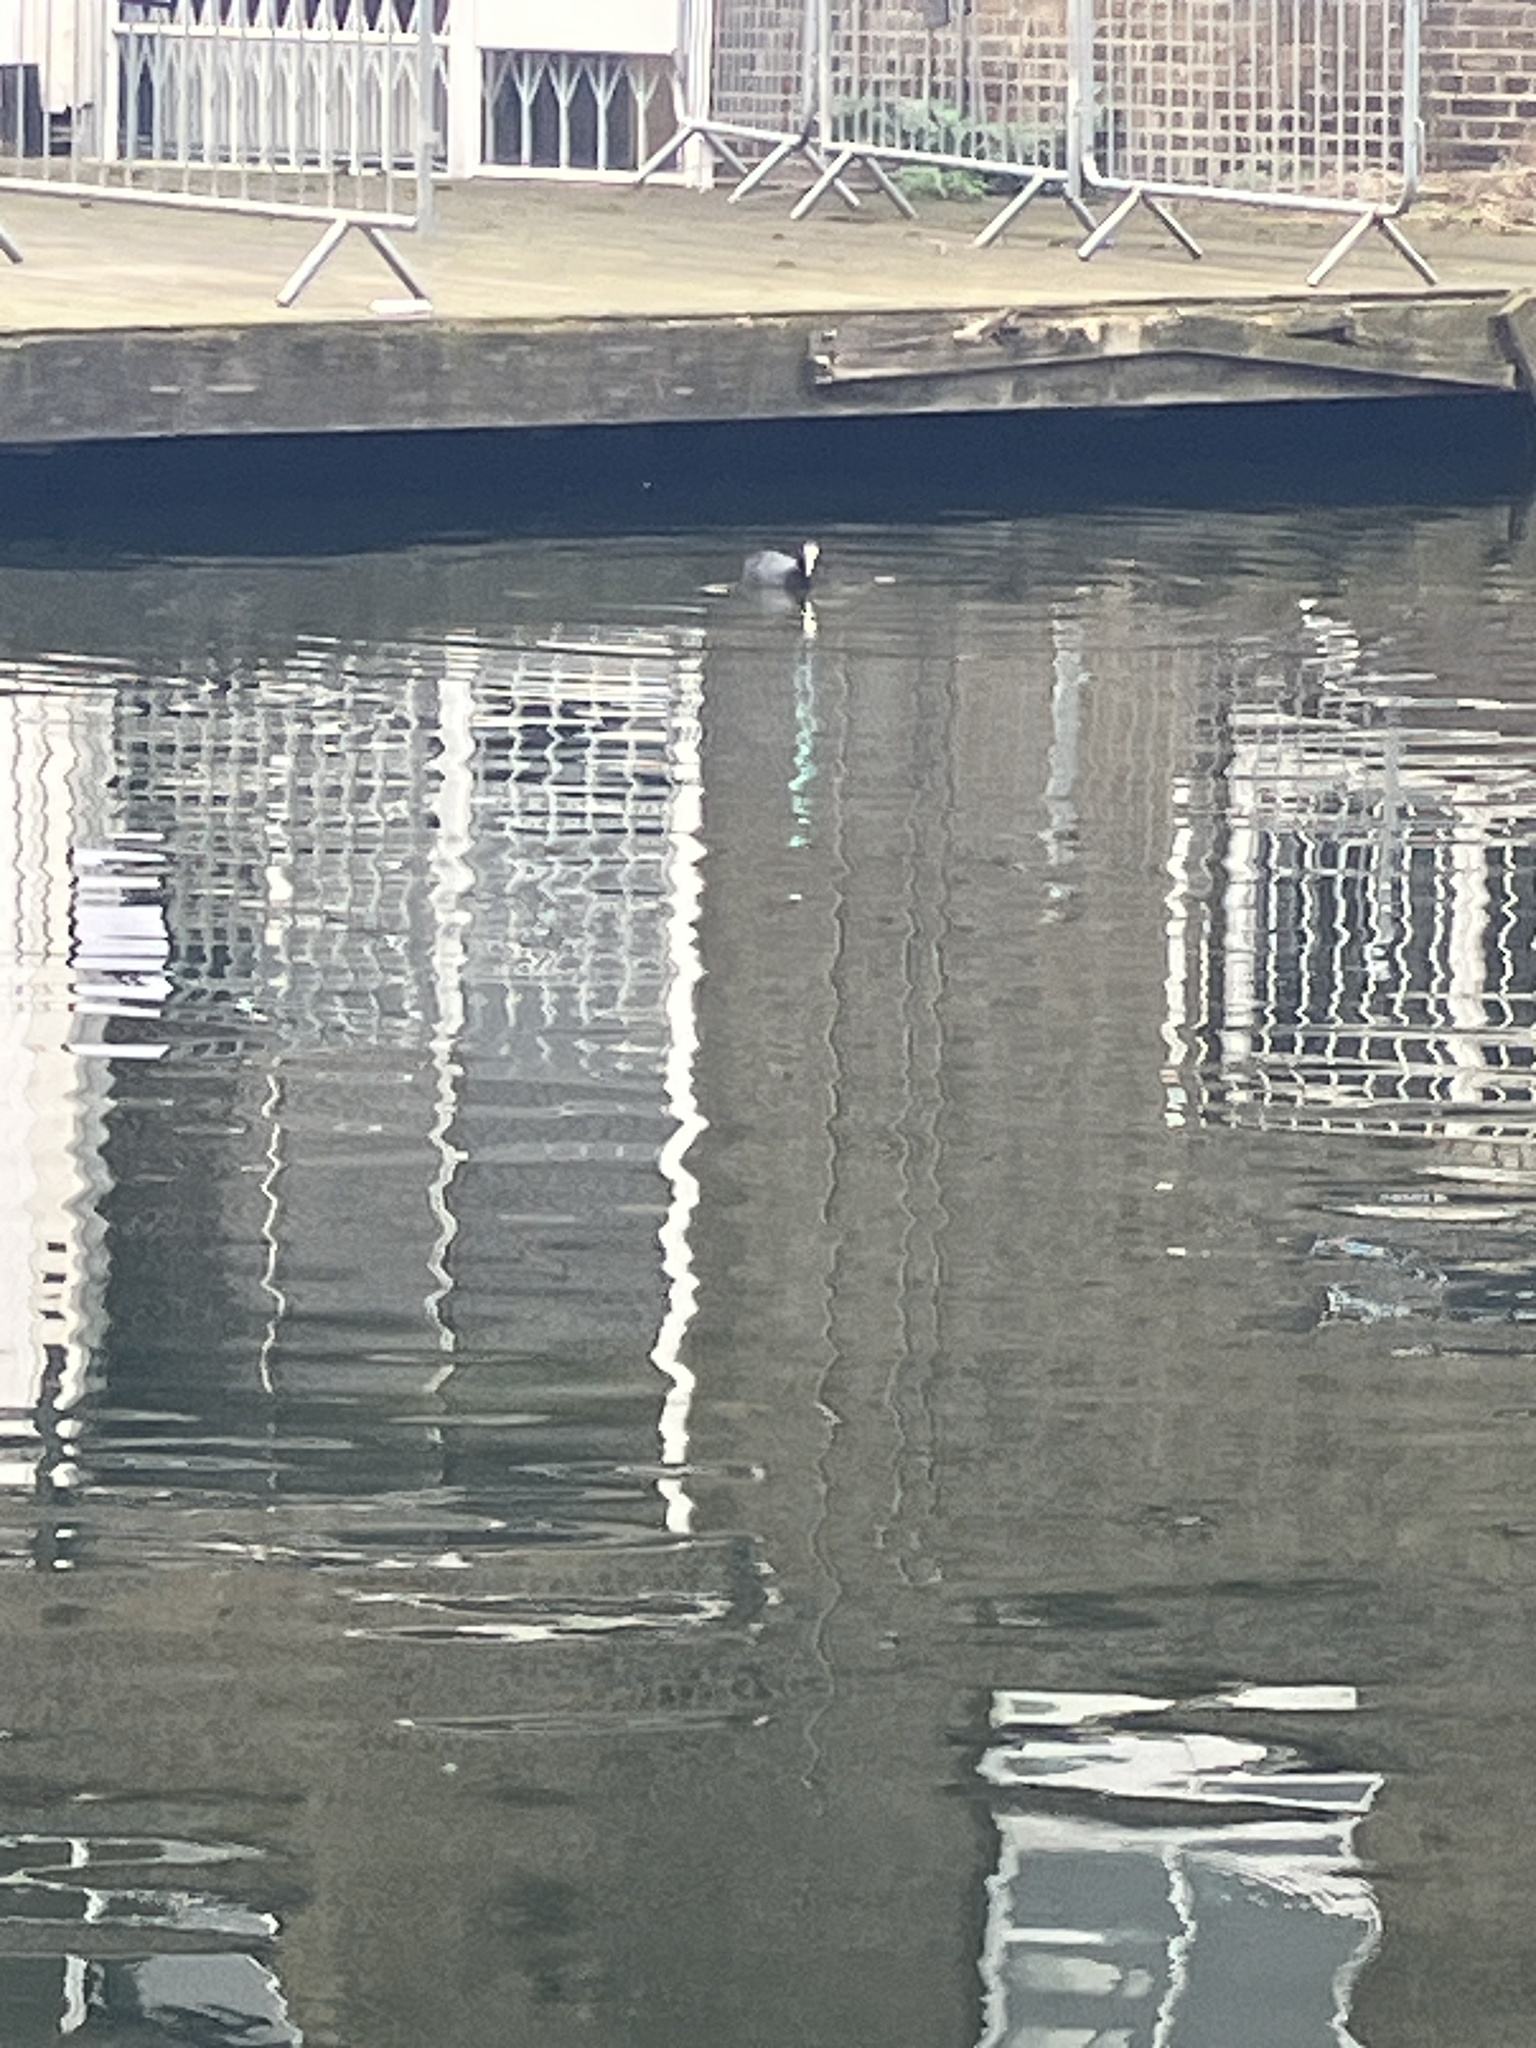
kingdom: Animalia
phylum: Chordata
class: Aves
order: Gruiformes
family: Rallidae
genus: Fulica
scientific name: Fulica atra
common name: Eurasian coot
